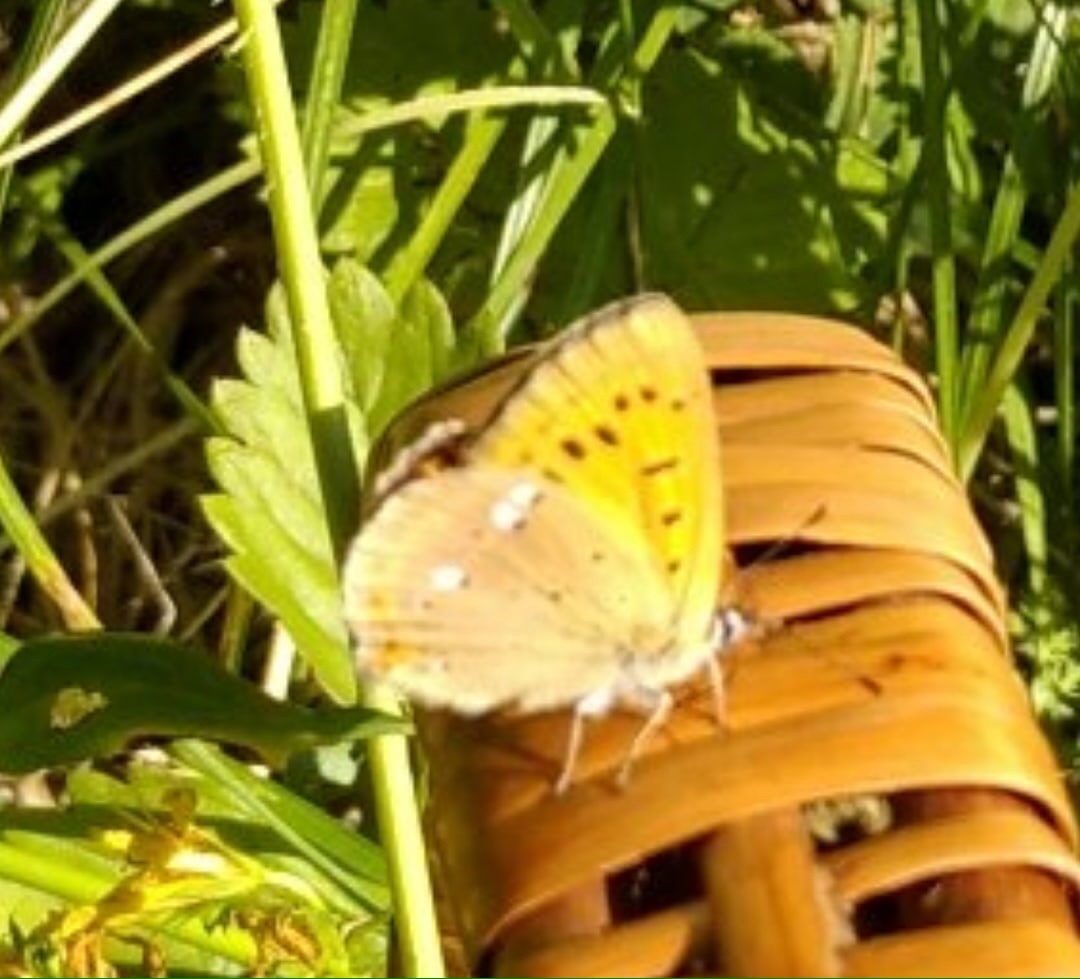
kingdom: Animalia
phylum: Arthropoda
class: Insecta
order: Lepidoptera
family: Lycaenidae
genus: Lycaena
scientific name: Lycaena virgaureae
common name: Scarce copper
